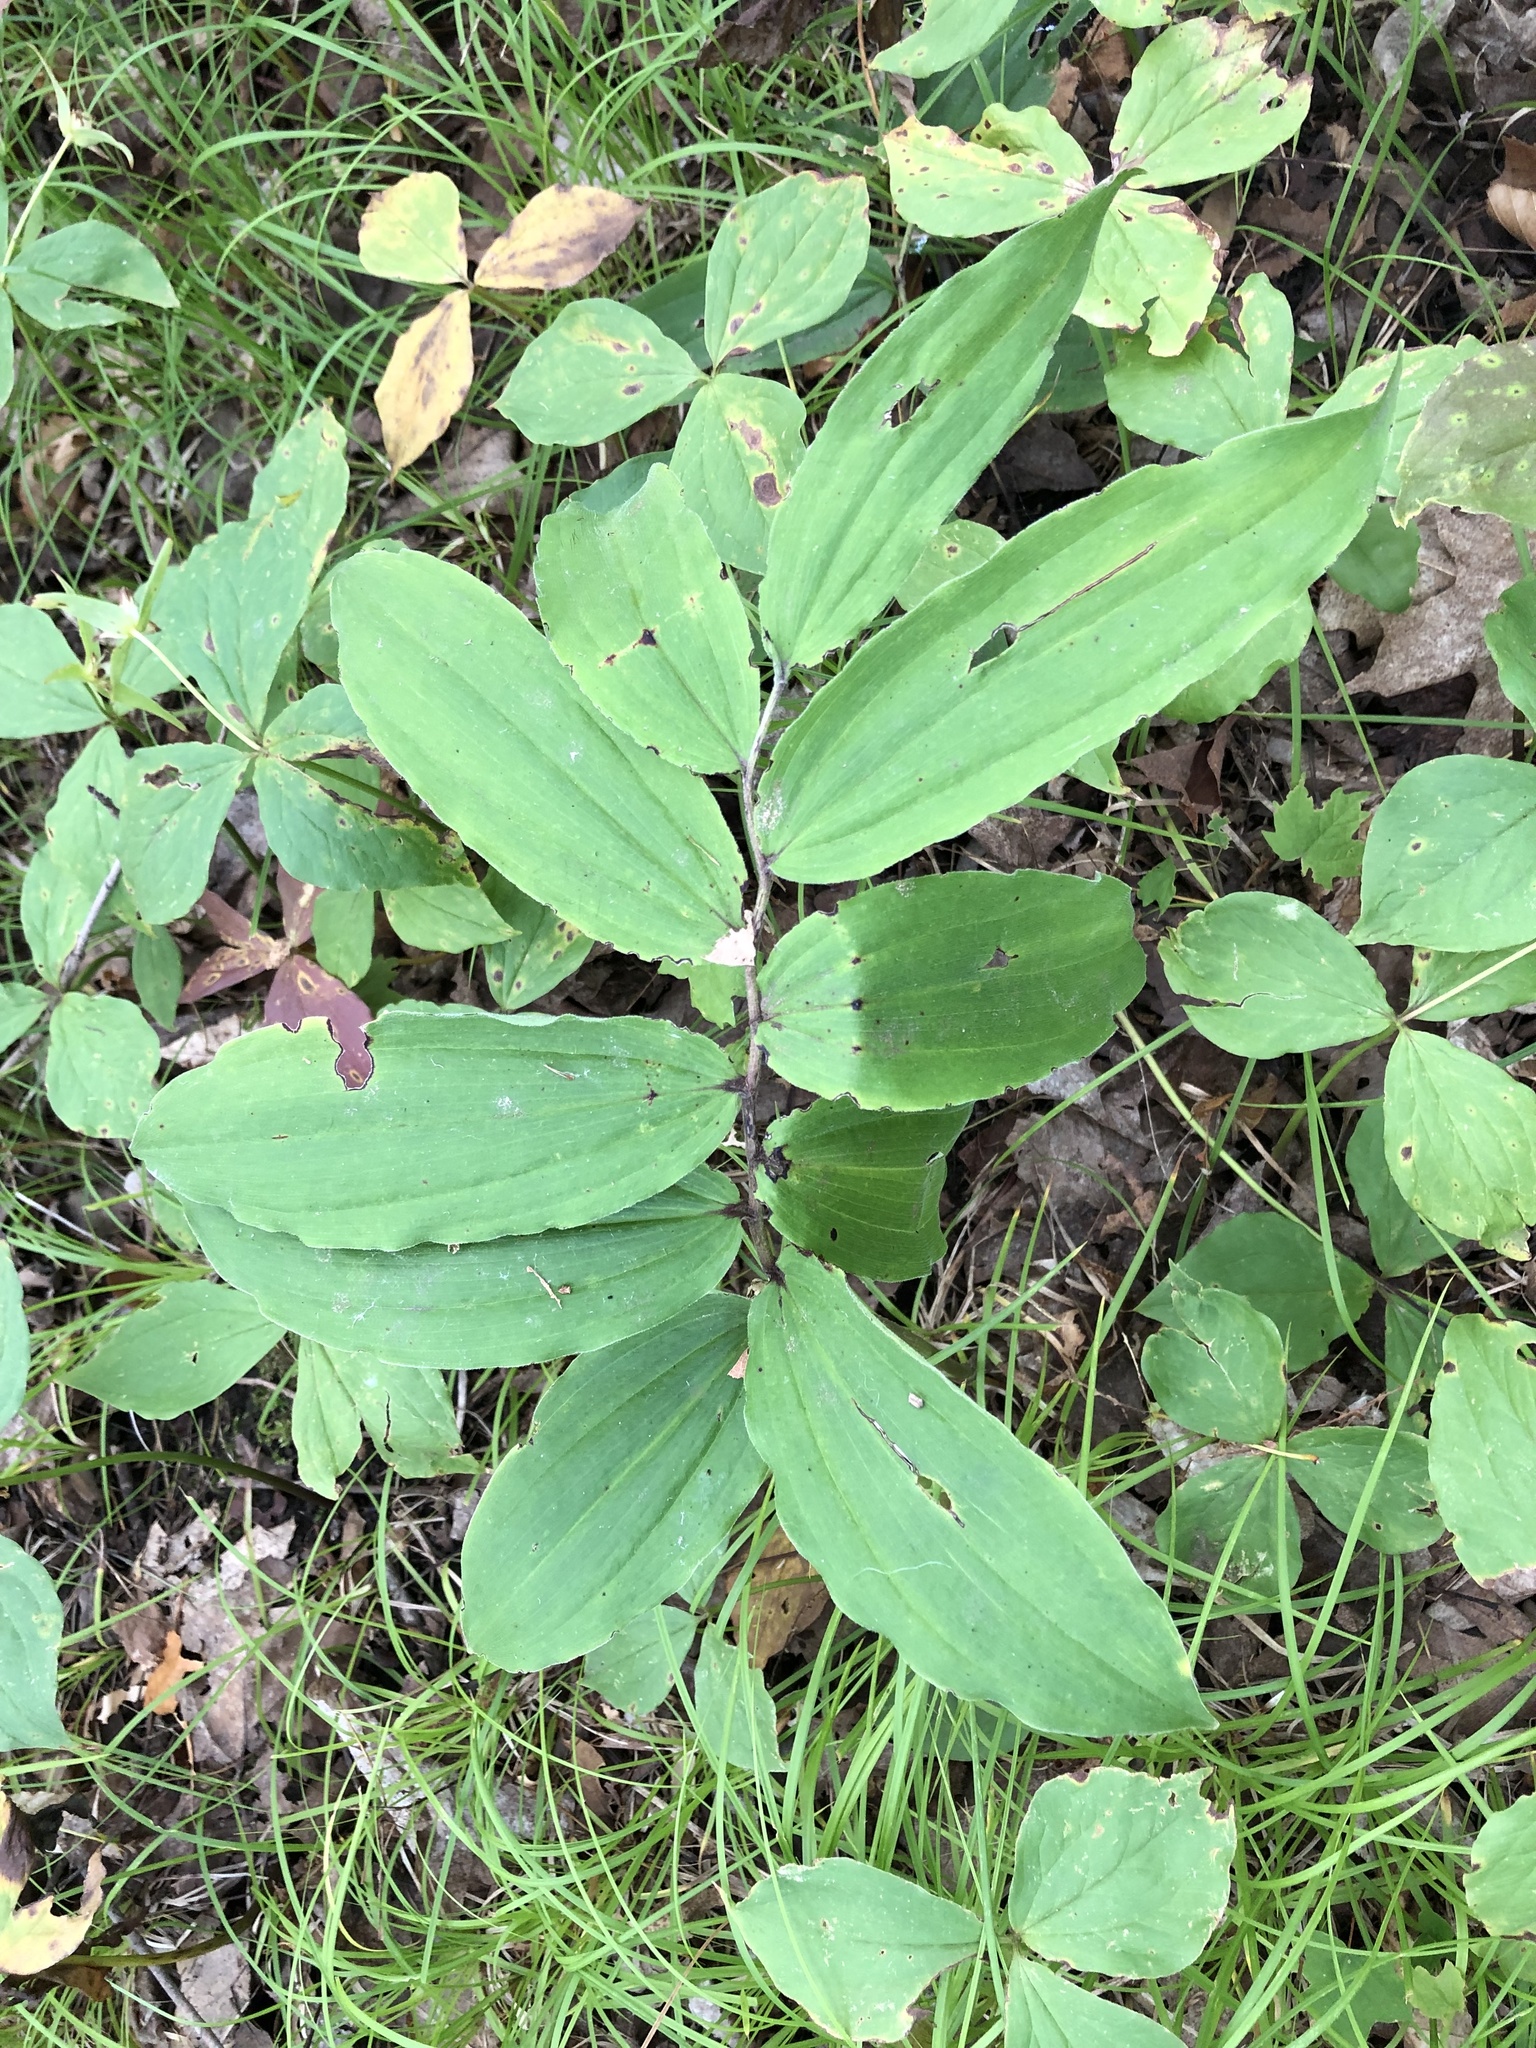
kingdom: Plantae
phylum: Tracheophyta
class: Liliopsida
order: Asparagales
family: Asparagaceae
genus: Maianthemum
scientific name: Maianthemum racemosum
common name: False spikenard
